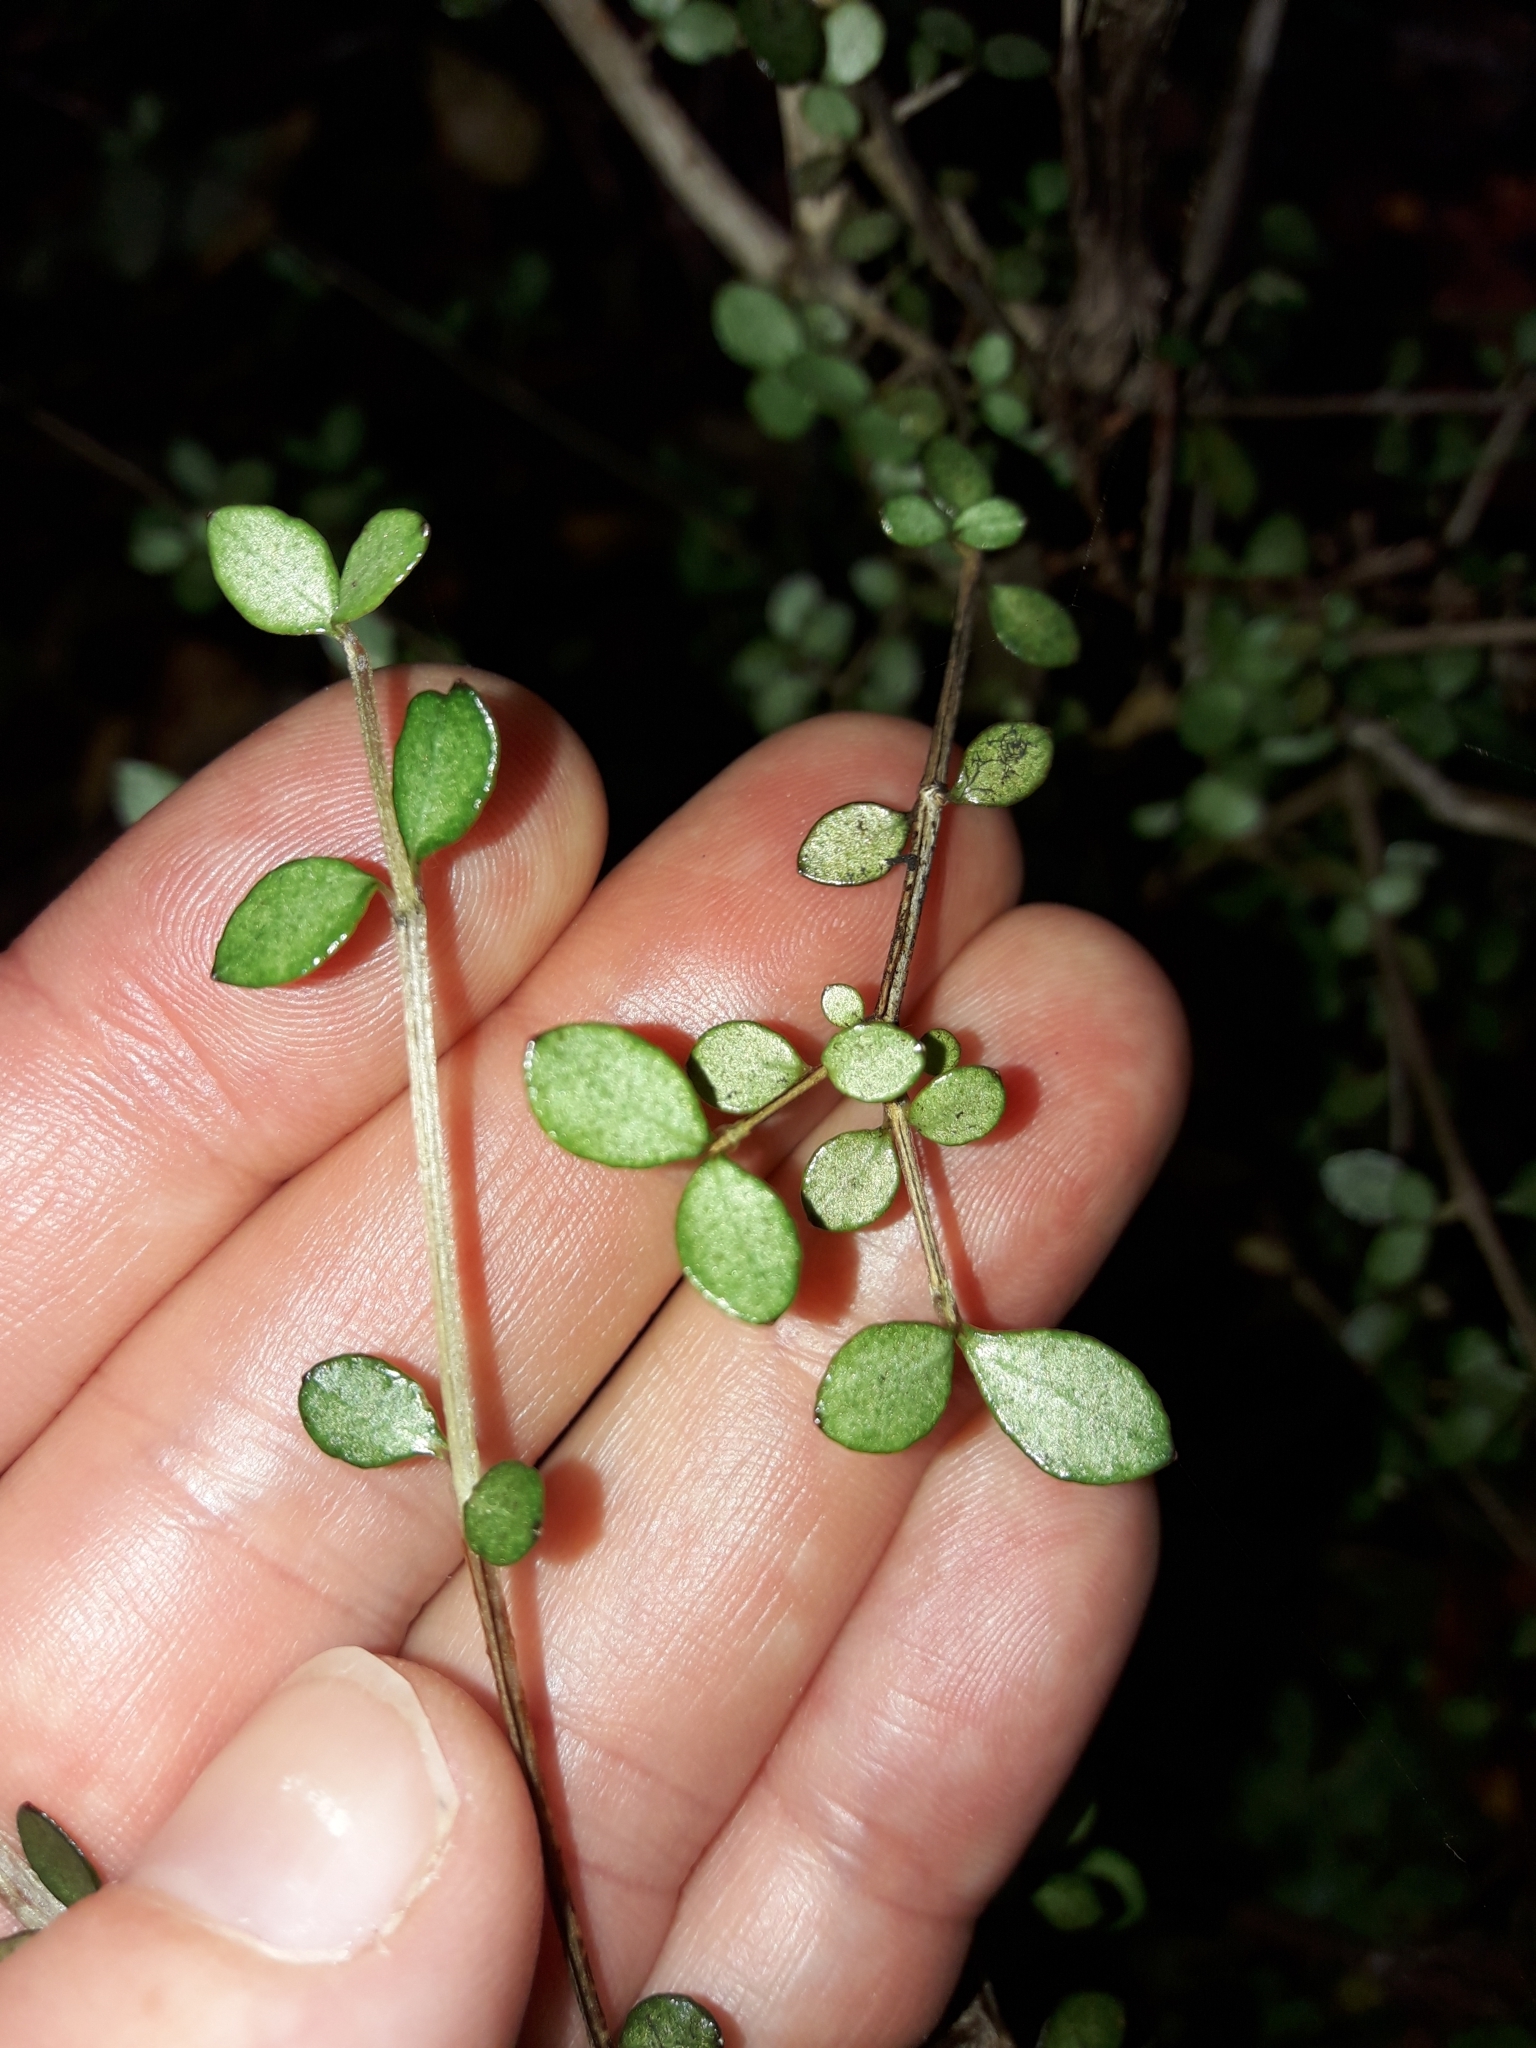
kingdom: Plantae
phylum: Tracheophyta
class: Magnoliopsida
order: Myrtales
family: Myrtaceae
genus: Neomyrtus
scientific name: Neomyrtus pedunculata
